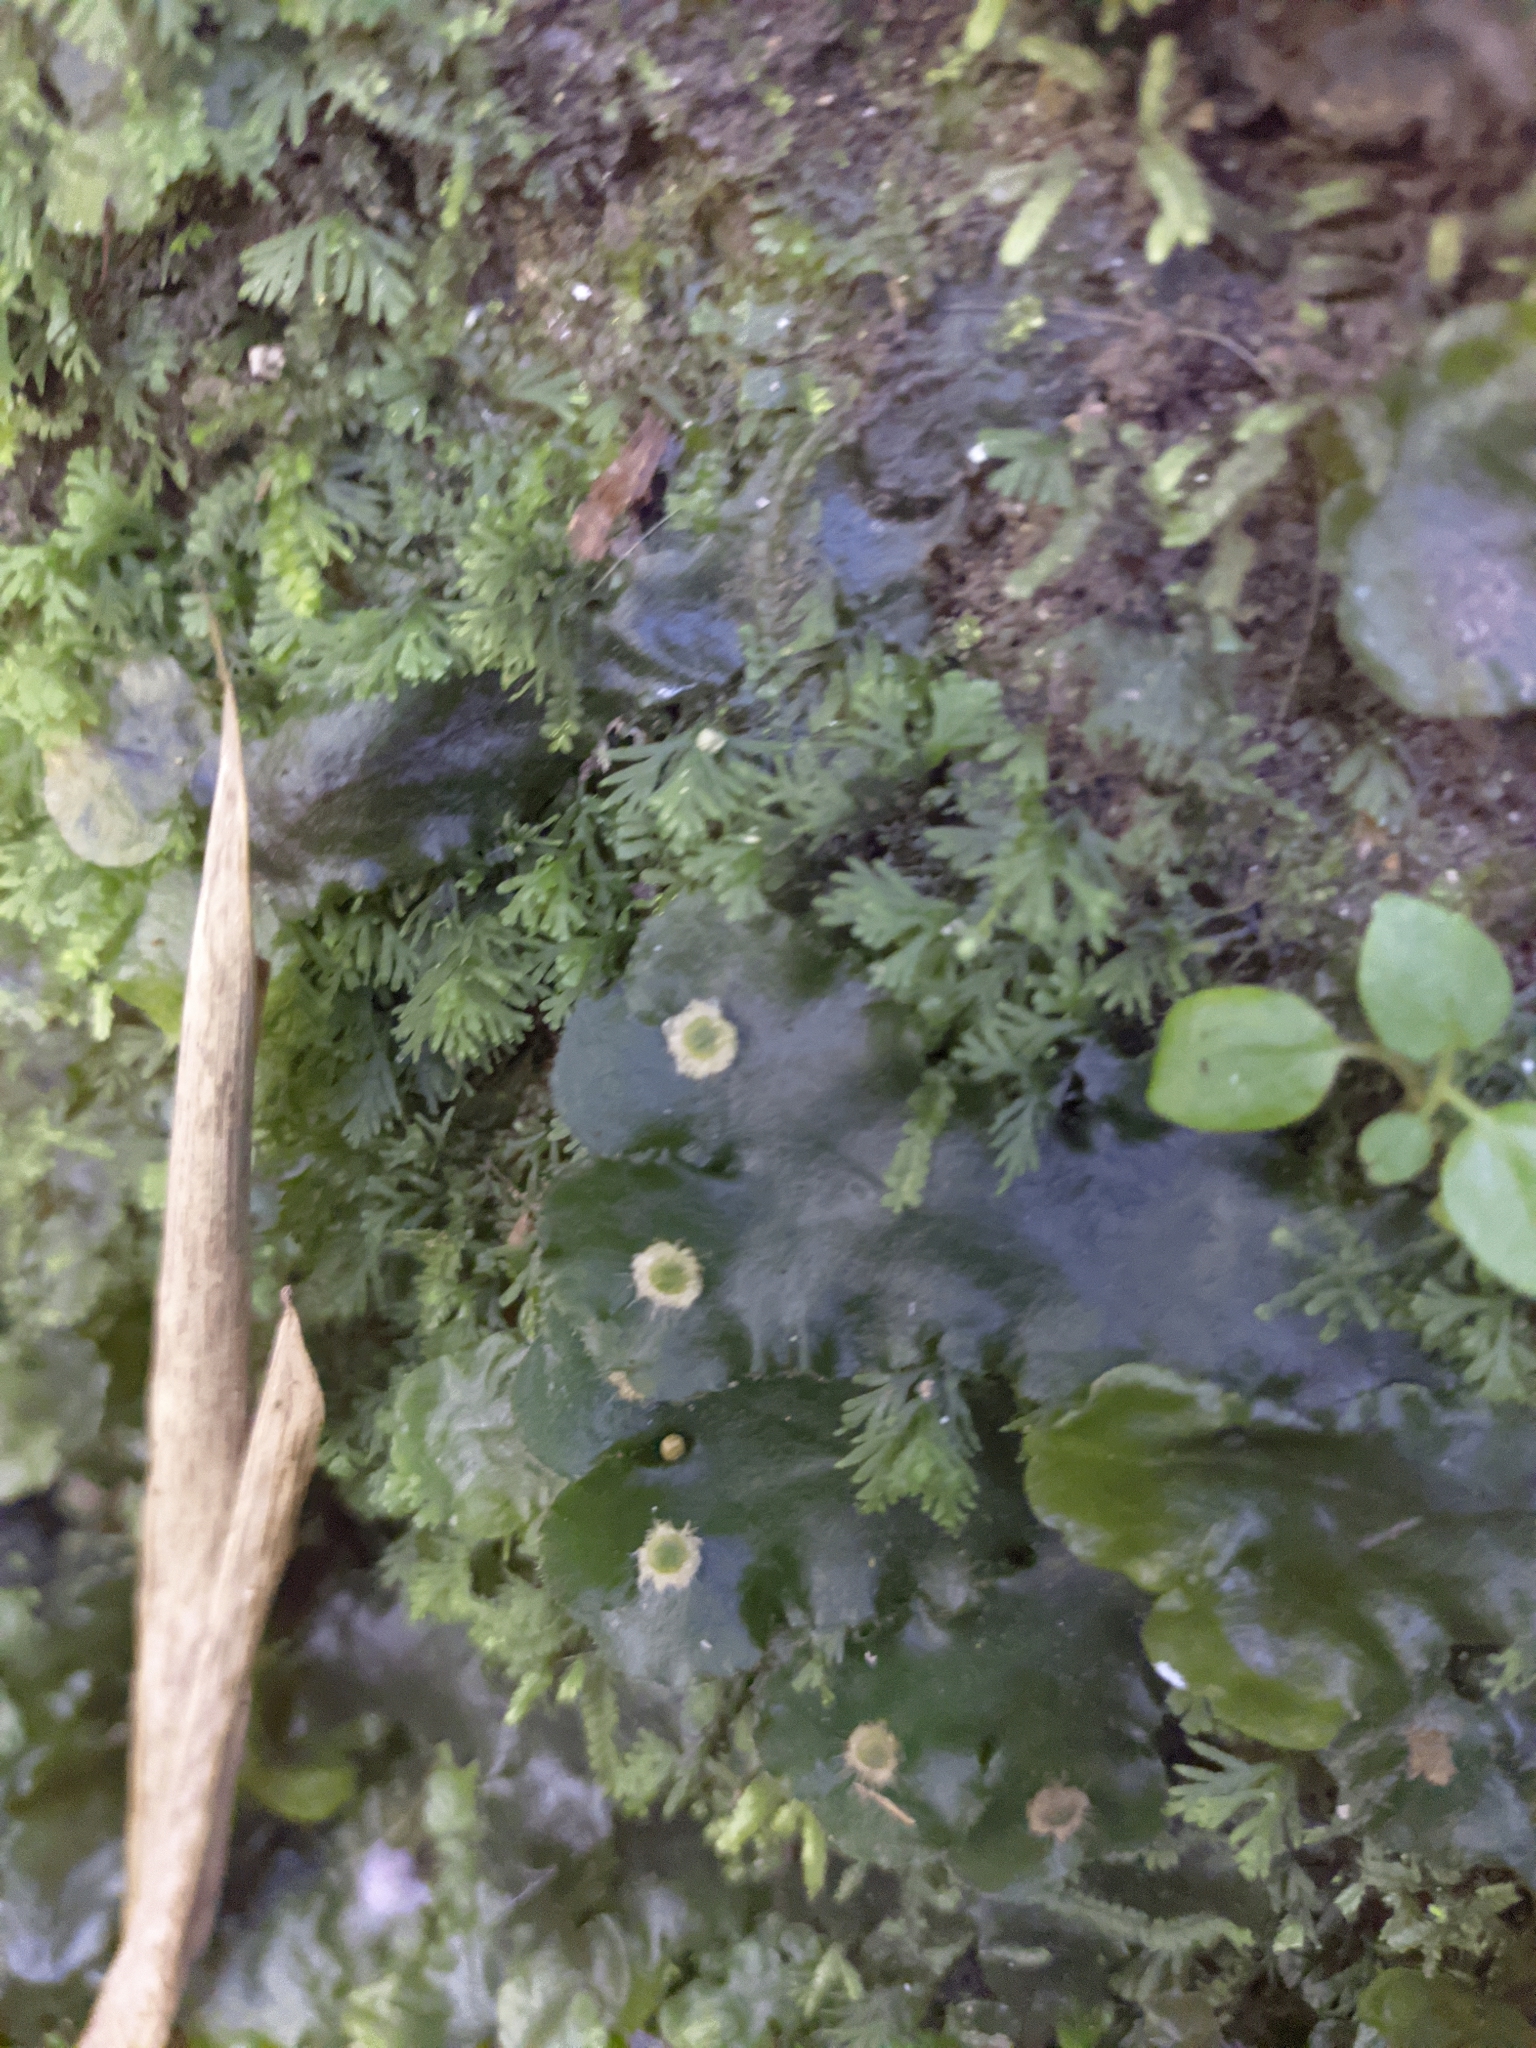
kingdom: Plantae
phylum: Marchantiophyta
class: Marchantiopsida
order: Marchantiales
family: Dumortieraceae
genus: Dumortiera
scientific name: Dumortiera hirsuta
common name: Dumortier's liverwort
